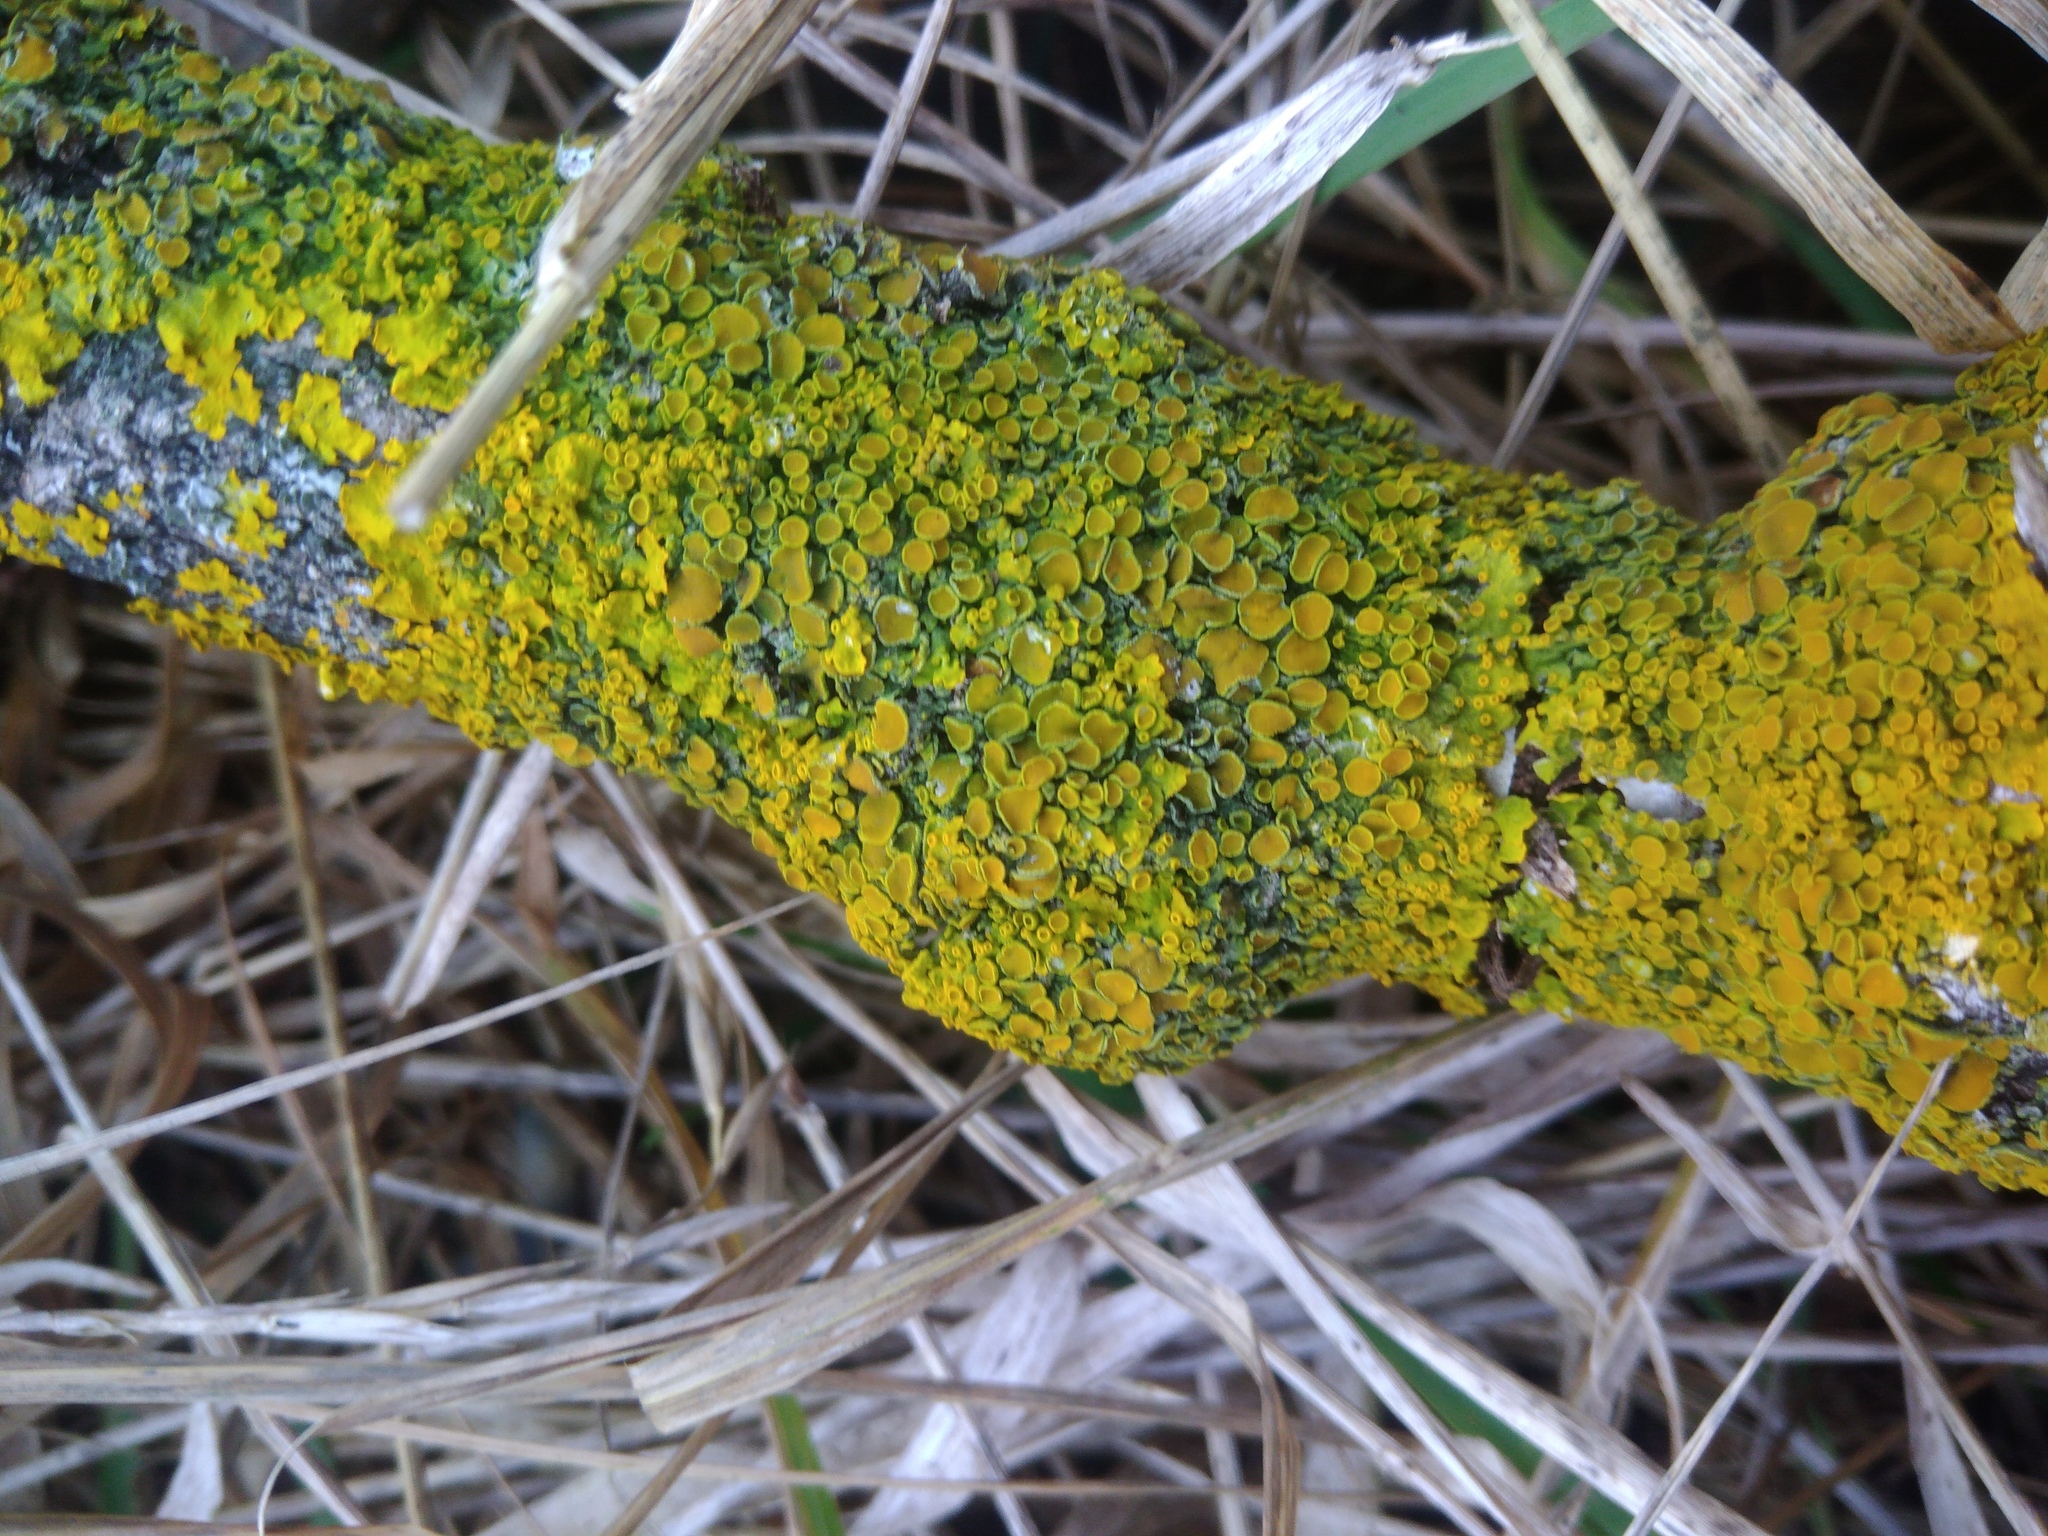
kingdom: Fungi
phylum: Ascomycota
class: Lecanoromycetes
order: Teloschistales
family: Teloschistaceae
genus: Xanthoria
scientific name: Xanthoria parietina
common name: Common orange lichen
